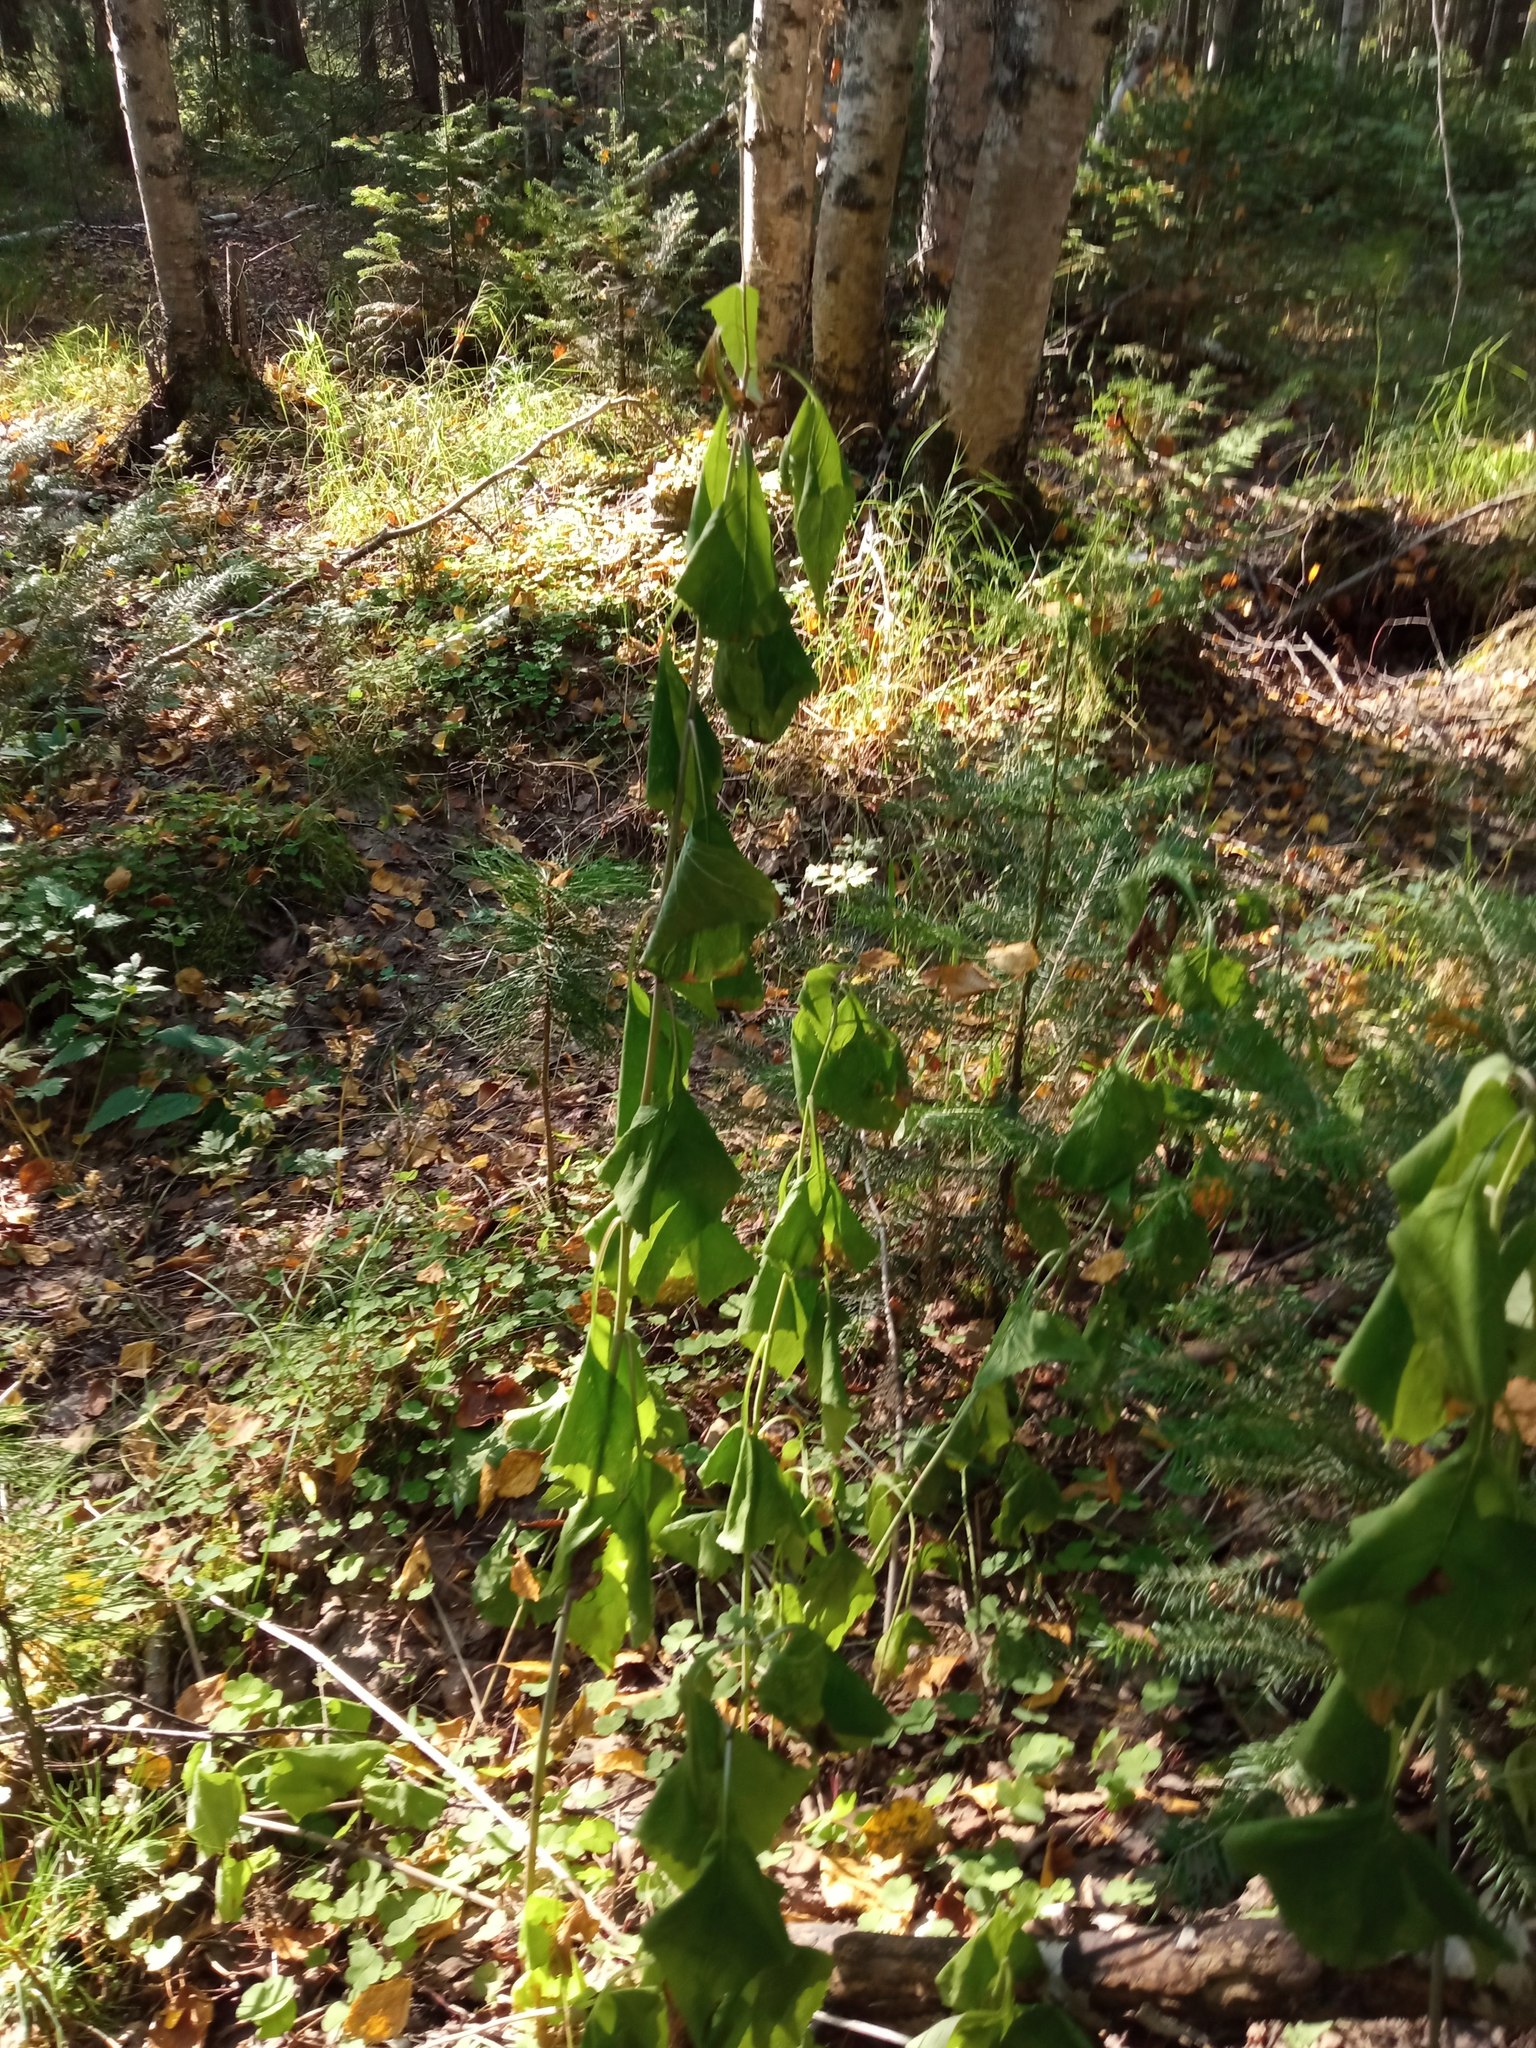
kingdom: Plantae
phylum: Tracheophyta
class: Magnoliopsida
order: Asterales
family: Asteraceae
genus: Parasenecio
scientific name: Parasenecio hastatus
